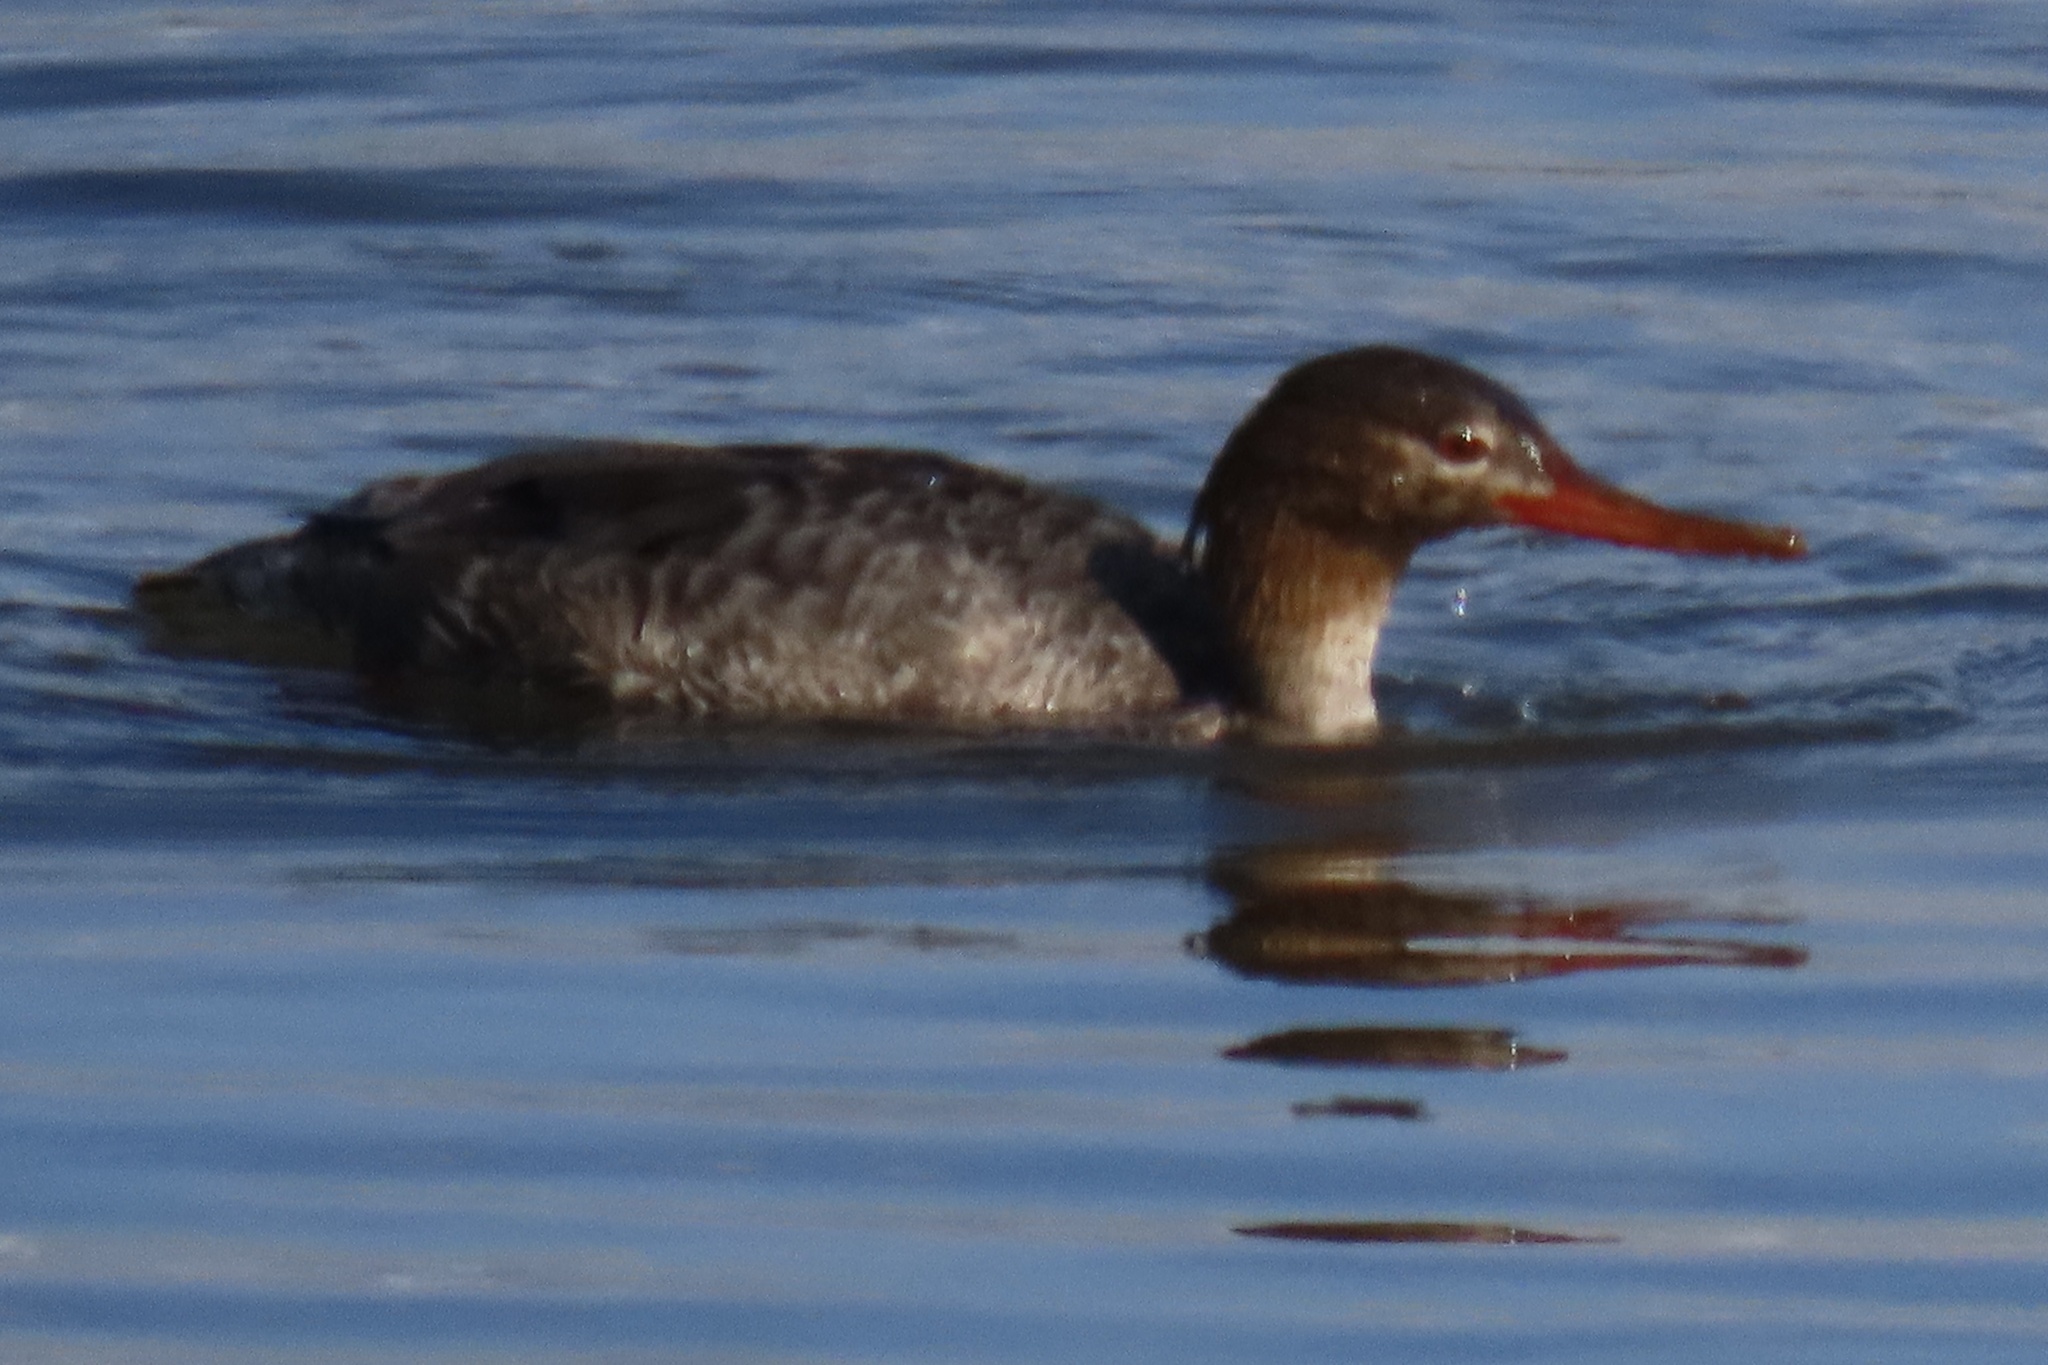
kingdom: Animalia
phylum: Chordata
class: Aves
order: Anseriformes
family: Anatidae
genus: Mergus
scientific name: Mergus serrator
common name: Red-breasted merganser
